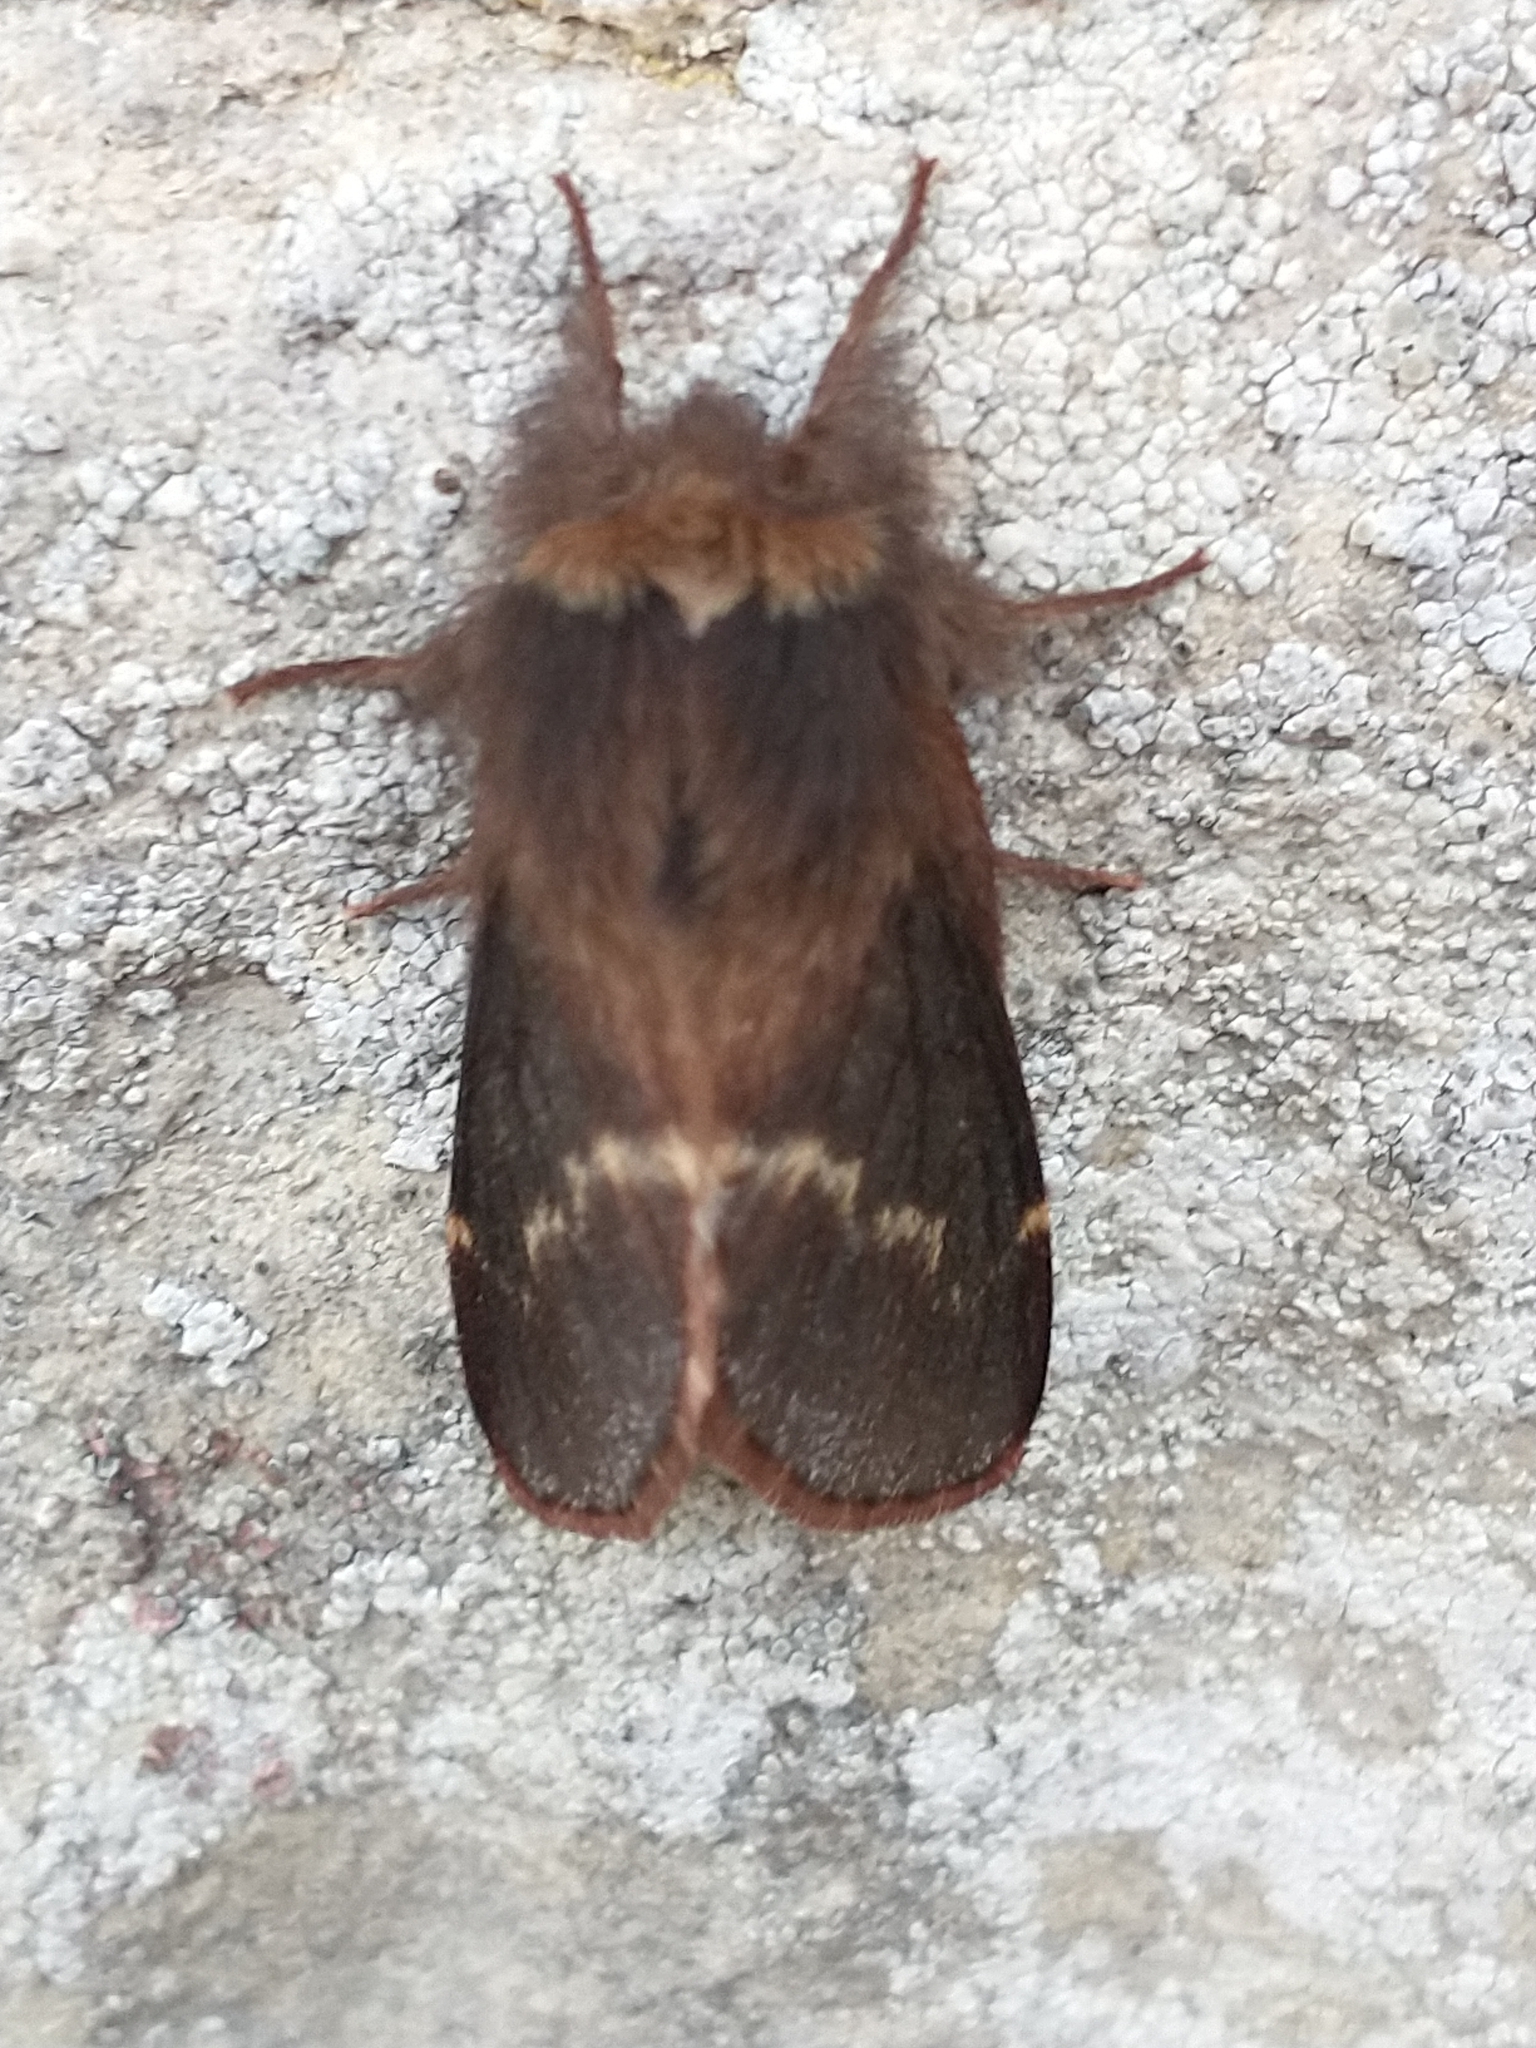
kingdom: Animalia
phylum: Arthropoda
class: Insecta
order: Lepidoptera
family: Lasiocampidae
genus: Poecilocampa
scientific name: Poecilocampa populi
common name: December moth
